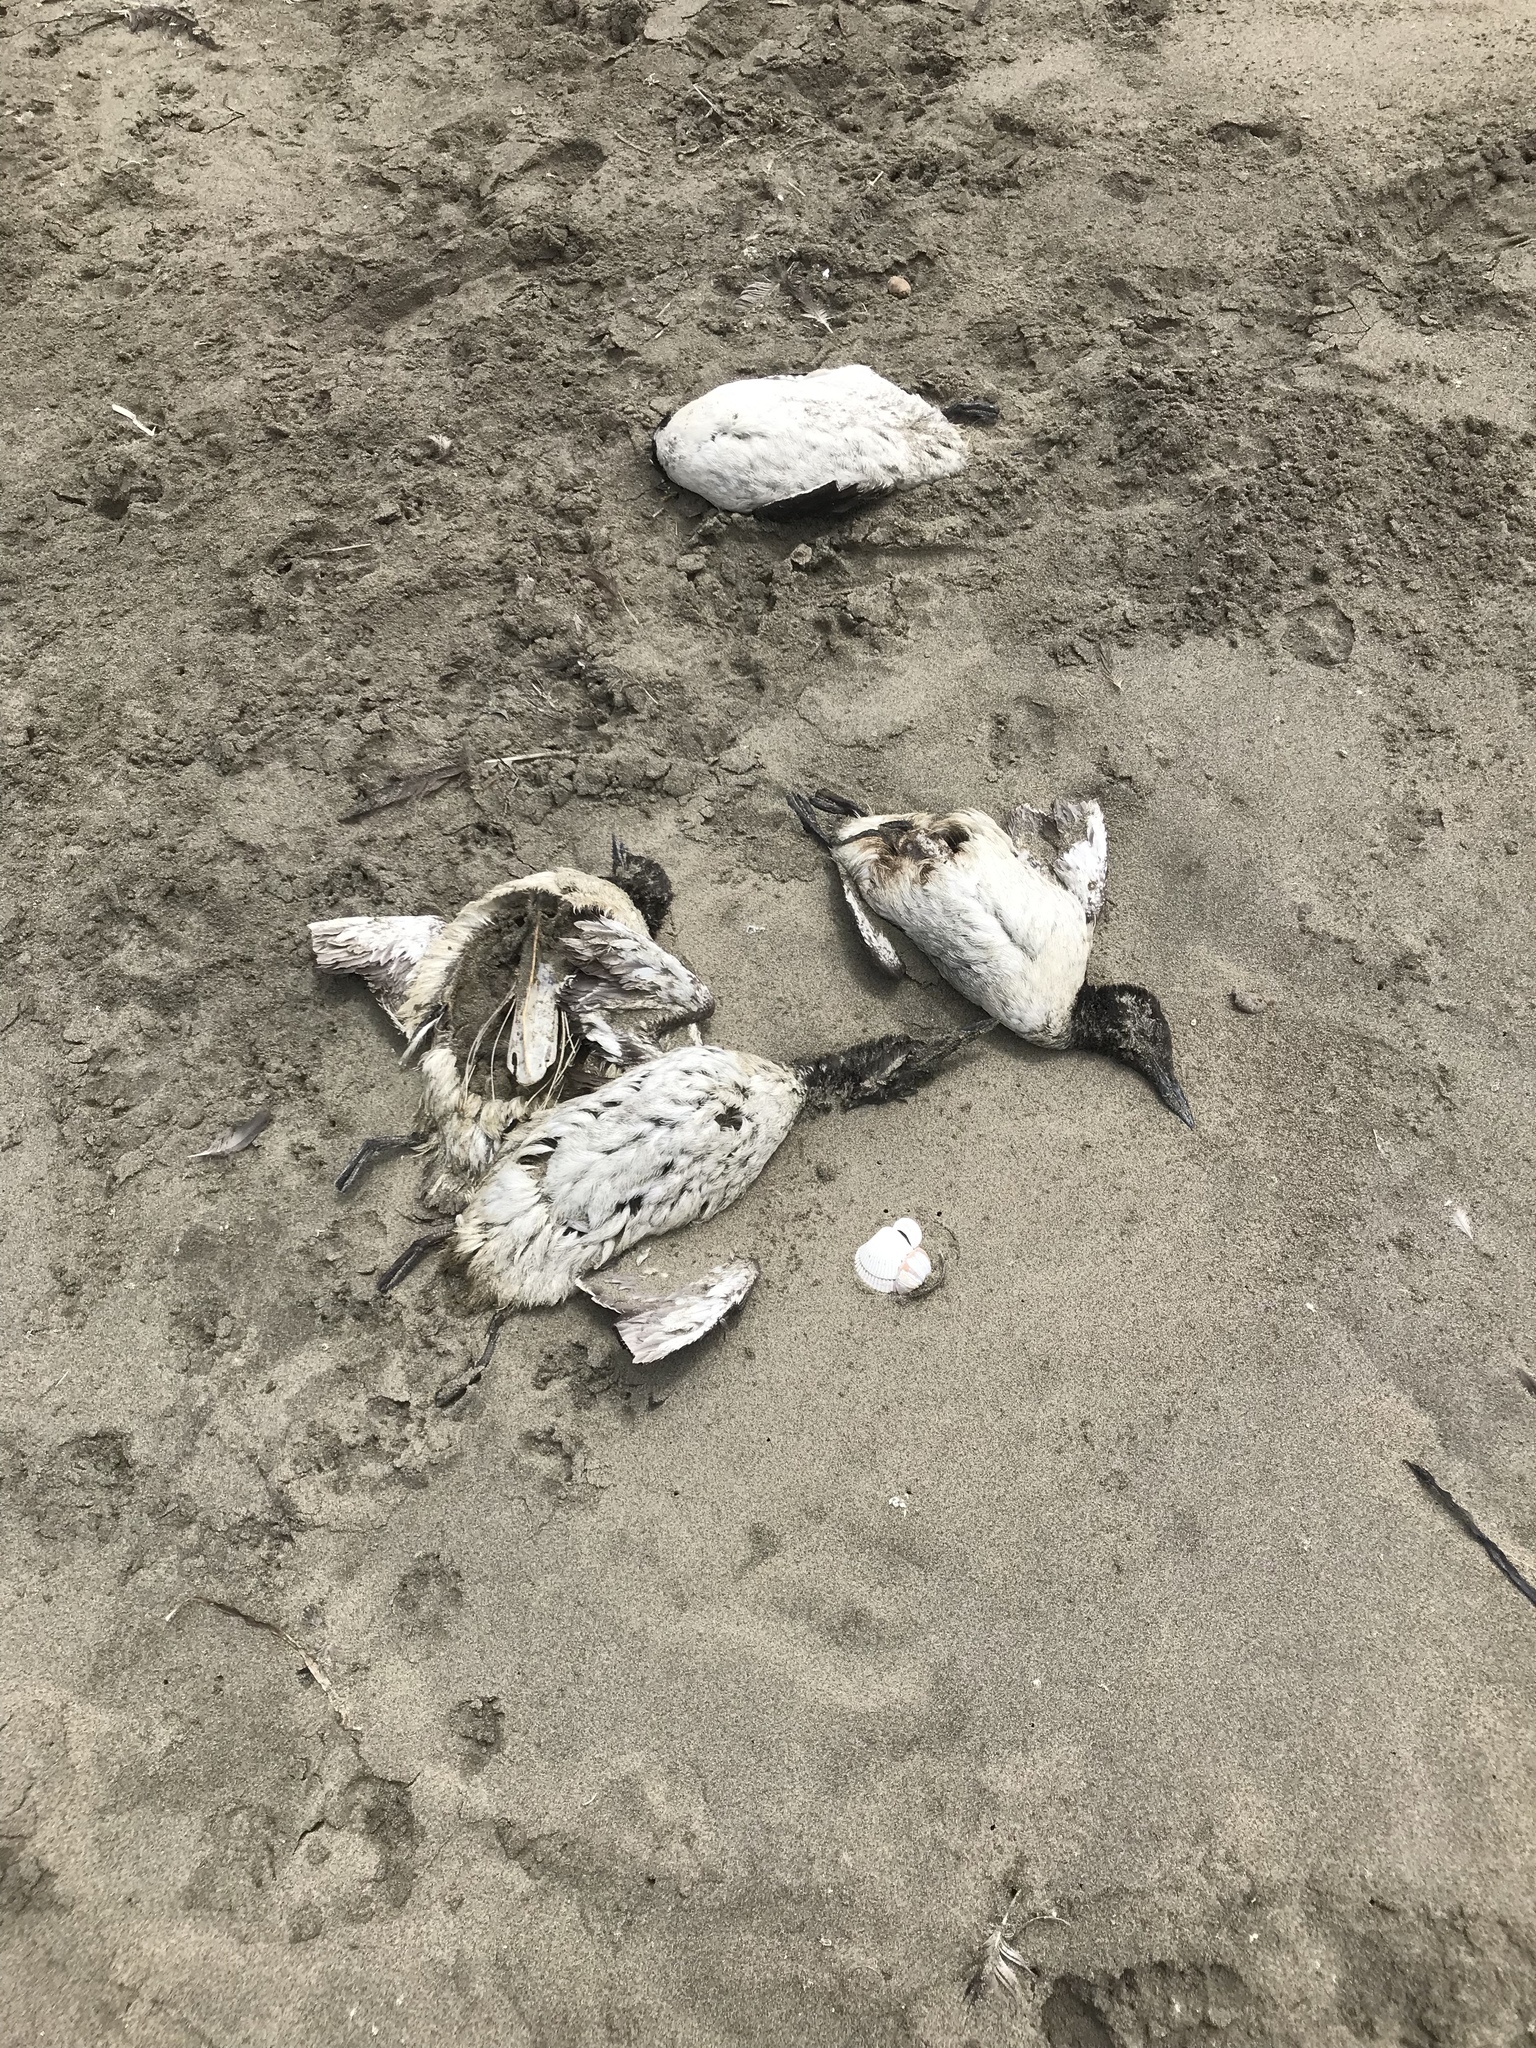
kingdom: Animalia
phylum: Chordata
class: Aves
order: Charadriiformes
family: Alcidae
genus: Uria
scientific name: Uria aalge
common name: Common murre
